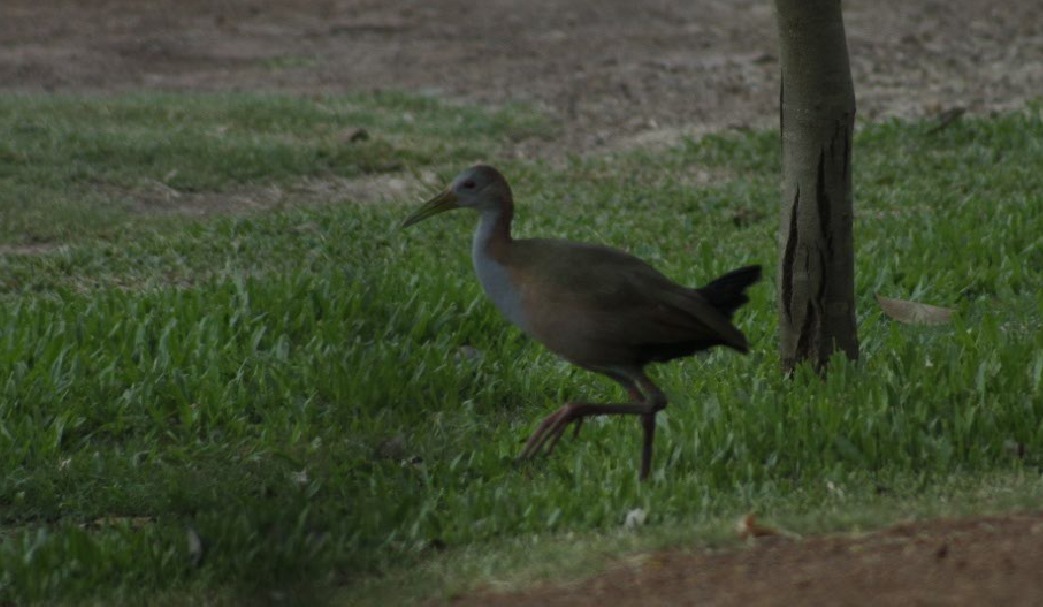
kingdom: Animalia
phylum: Chordata
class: Aves
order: Gruiformes
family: Rallidae
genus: Aramides
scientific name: Aramides ypecaha
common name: Giant wood rail
